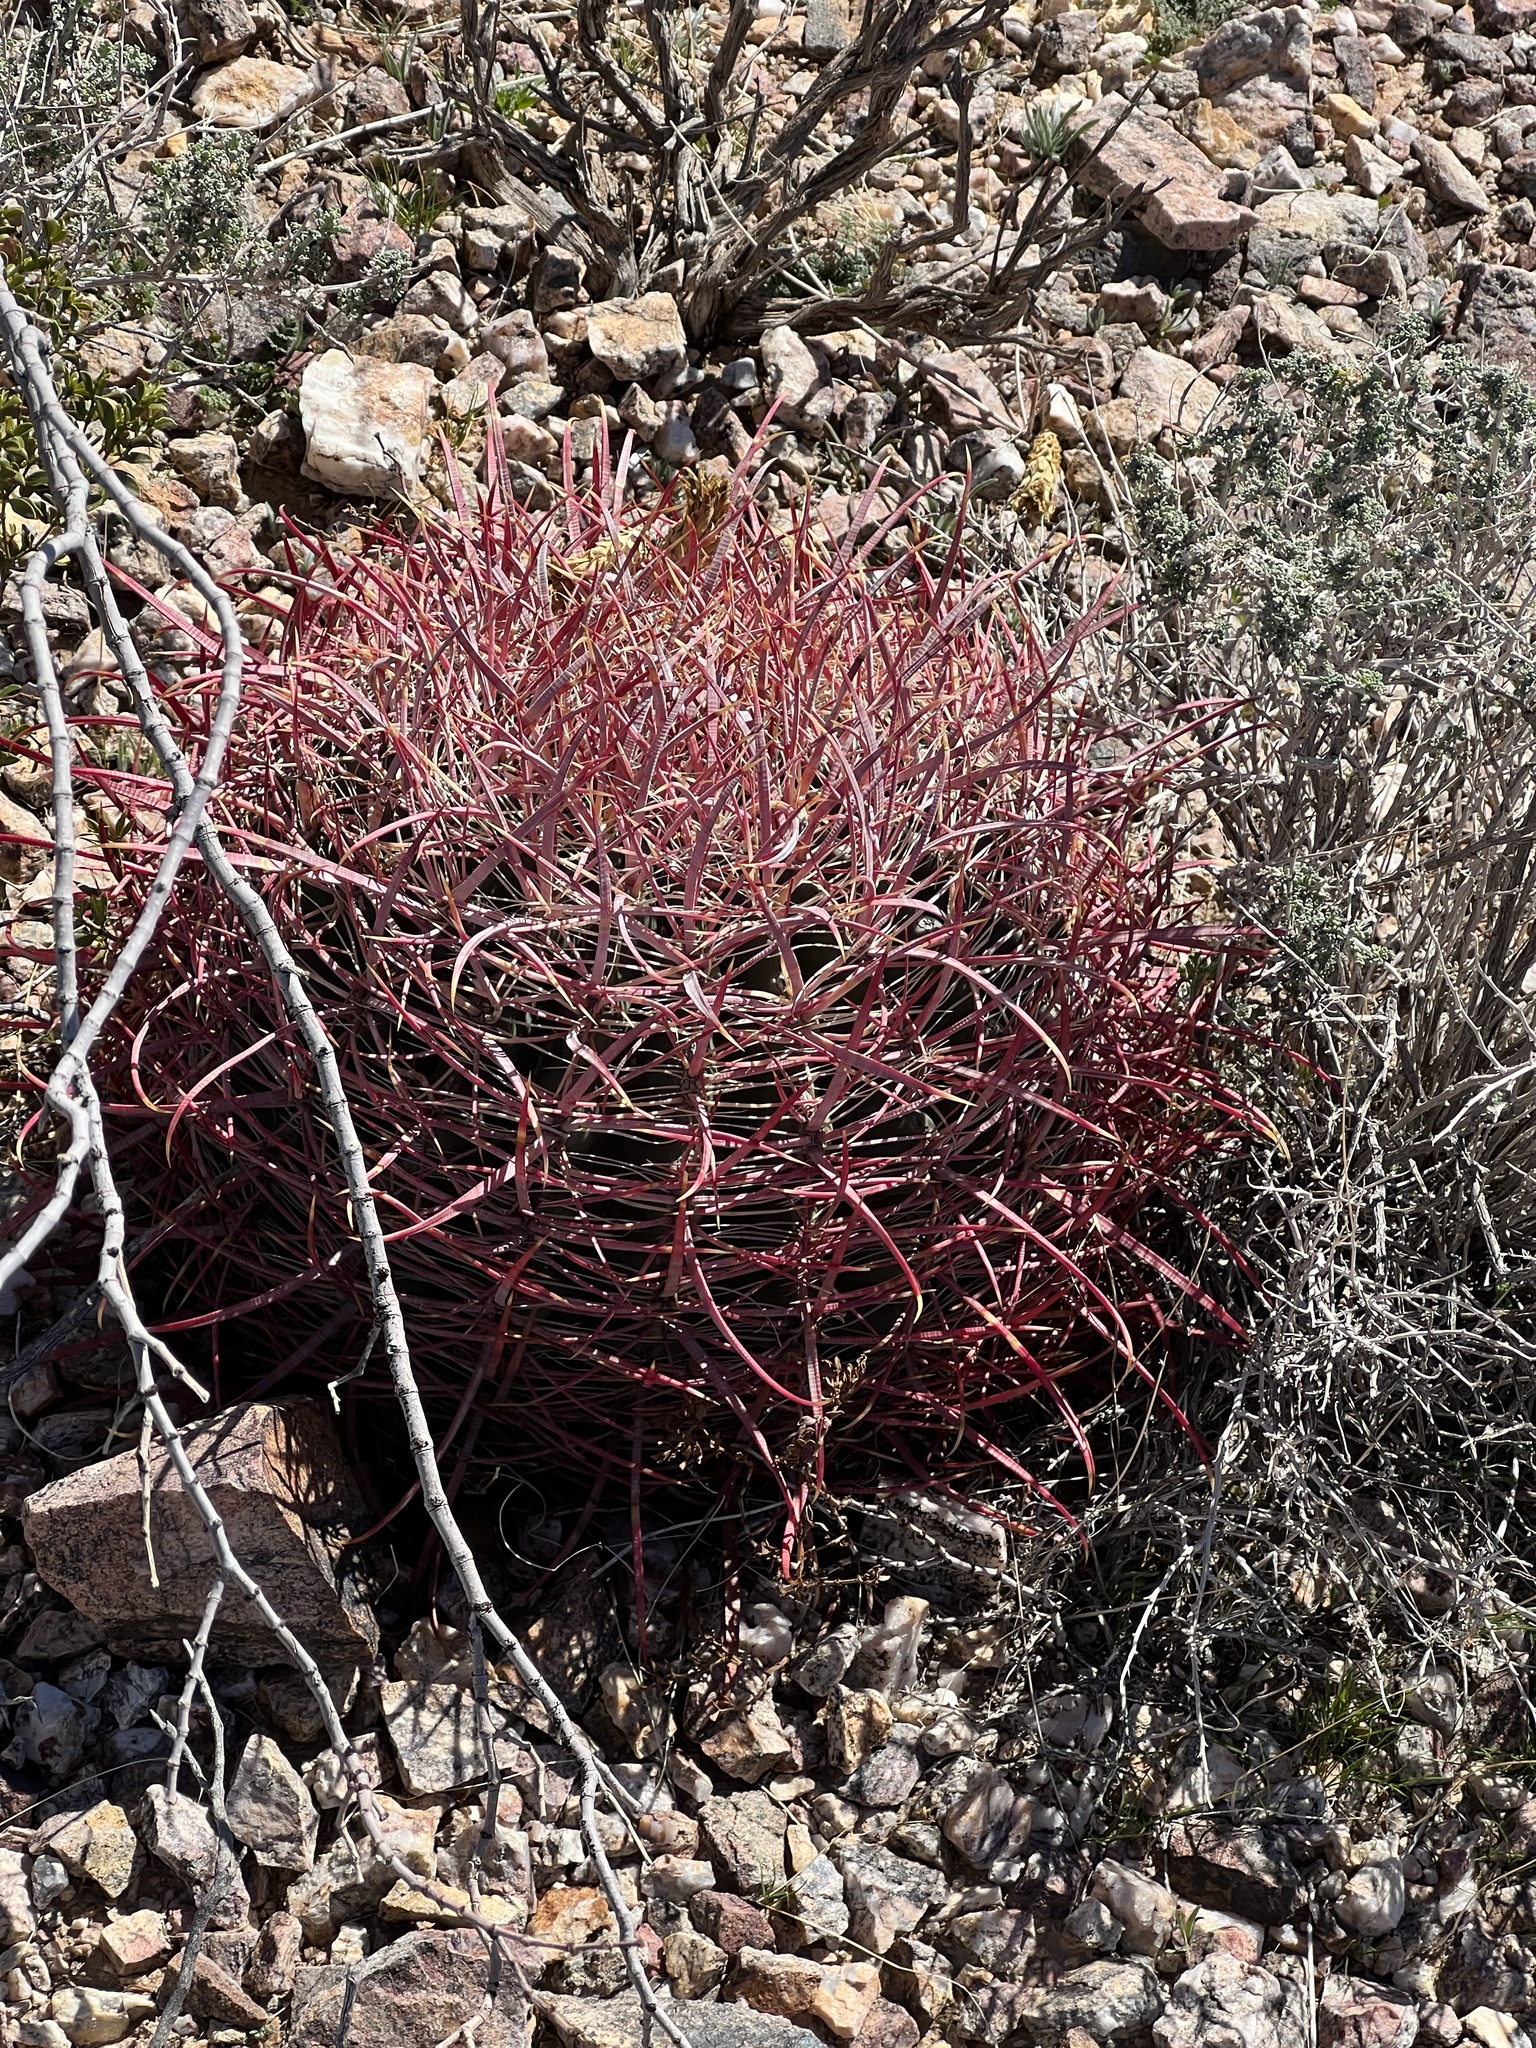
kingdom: Plantae
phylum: Tracheophyta
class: Magnoliopsida
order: Caryophyllales
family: Cactaceae
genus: Ferocactus
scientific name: Ferocactus cylindraceus
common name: California barrel cactus
